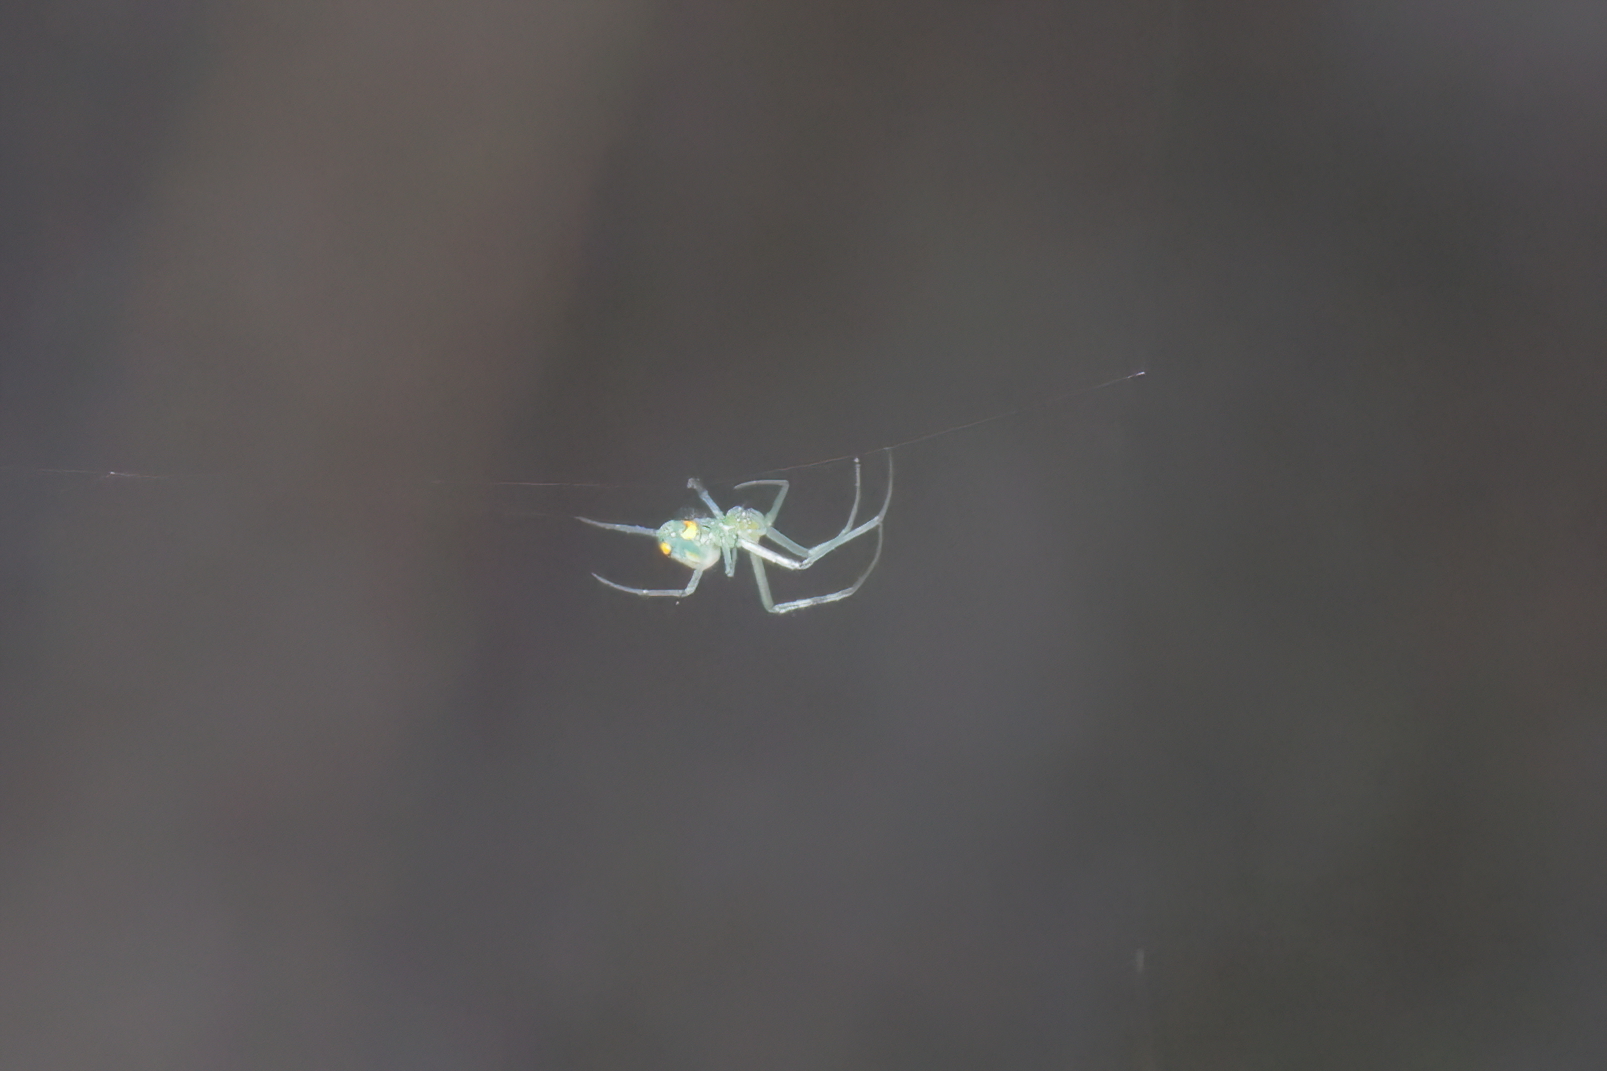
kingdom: Animalia
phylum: Arthropoda
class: Arachnida
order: Araneae
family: Tetragnathidae
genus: Leucauge
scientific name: Leucauge argyrobapta
